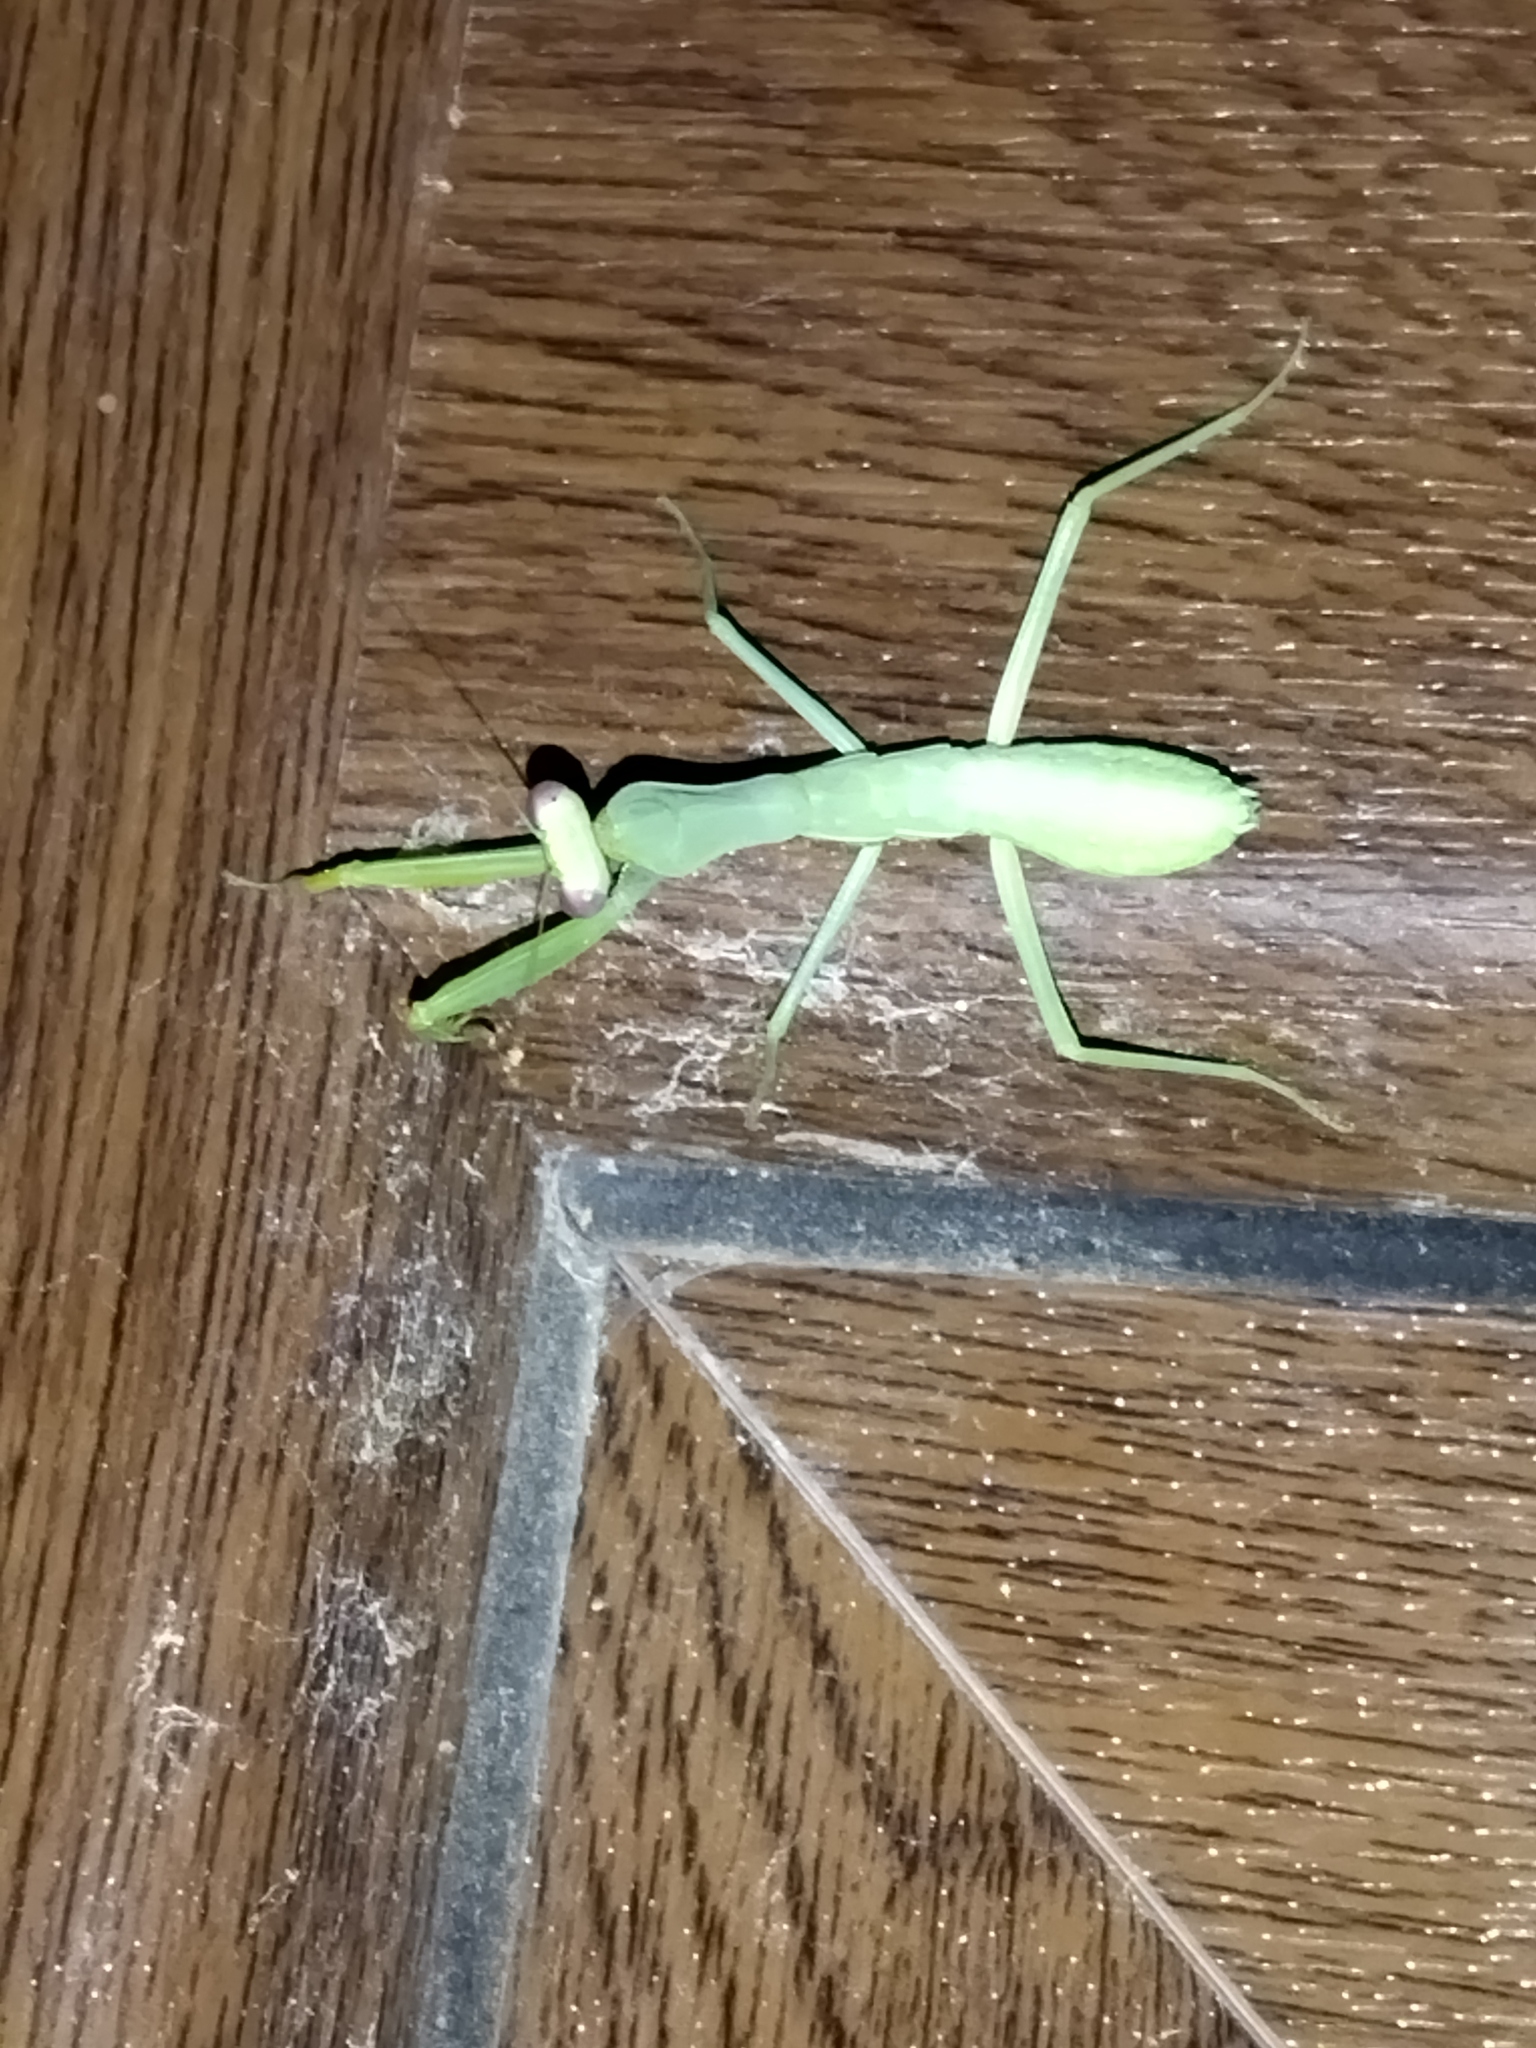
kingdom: Animalia
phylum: Arthropoda
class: Insecta
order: Mantodea
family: Mantidae
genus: Hierodula
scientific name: Hierodula transcaucasica
